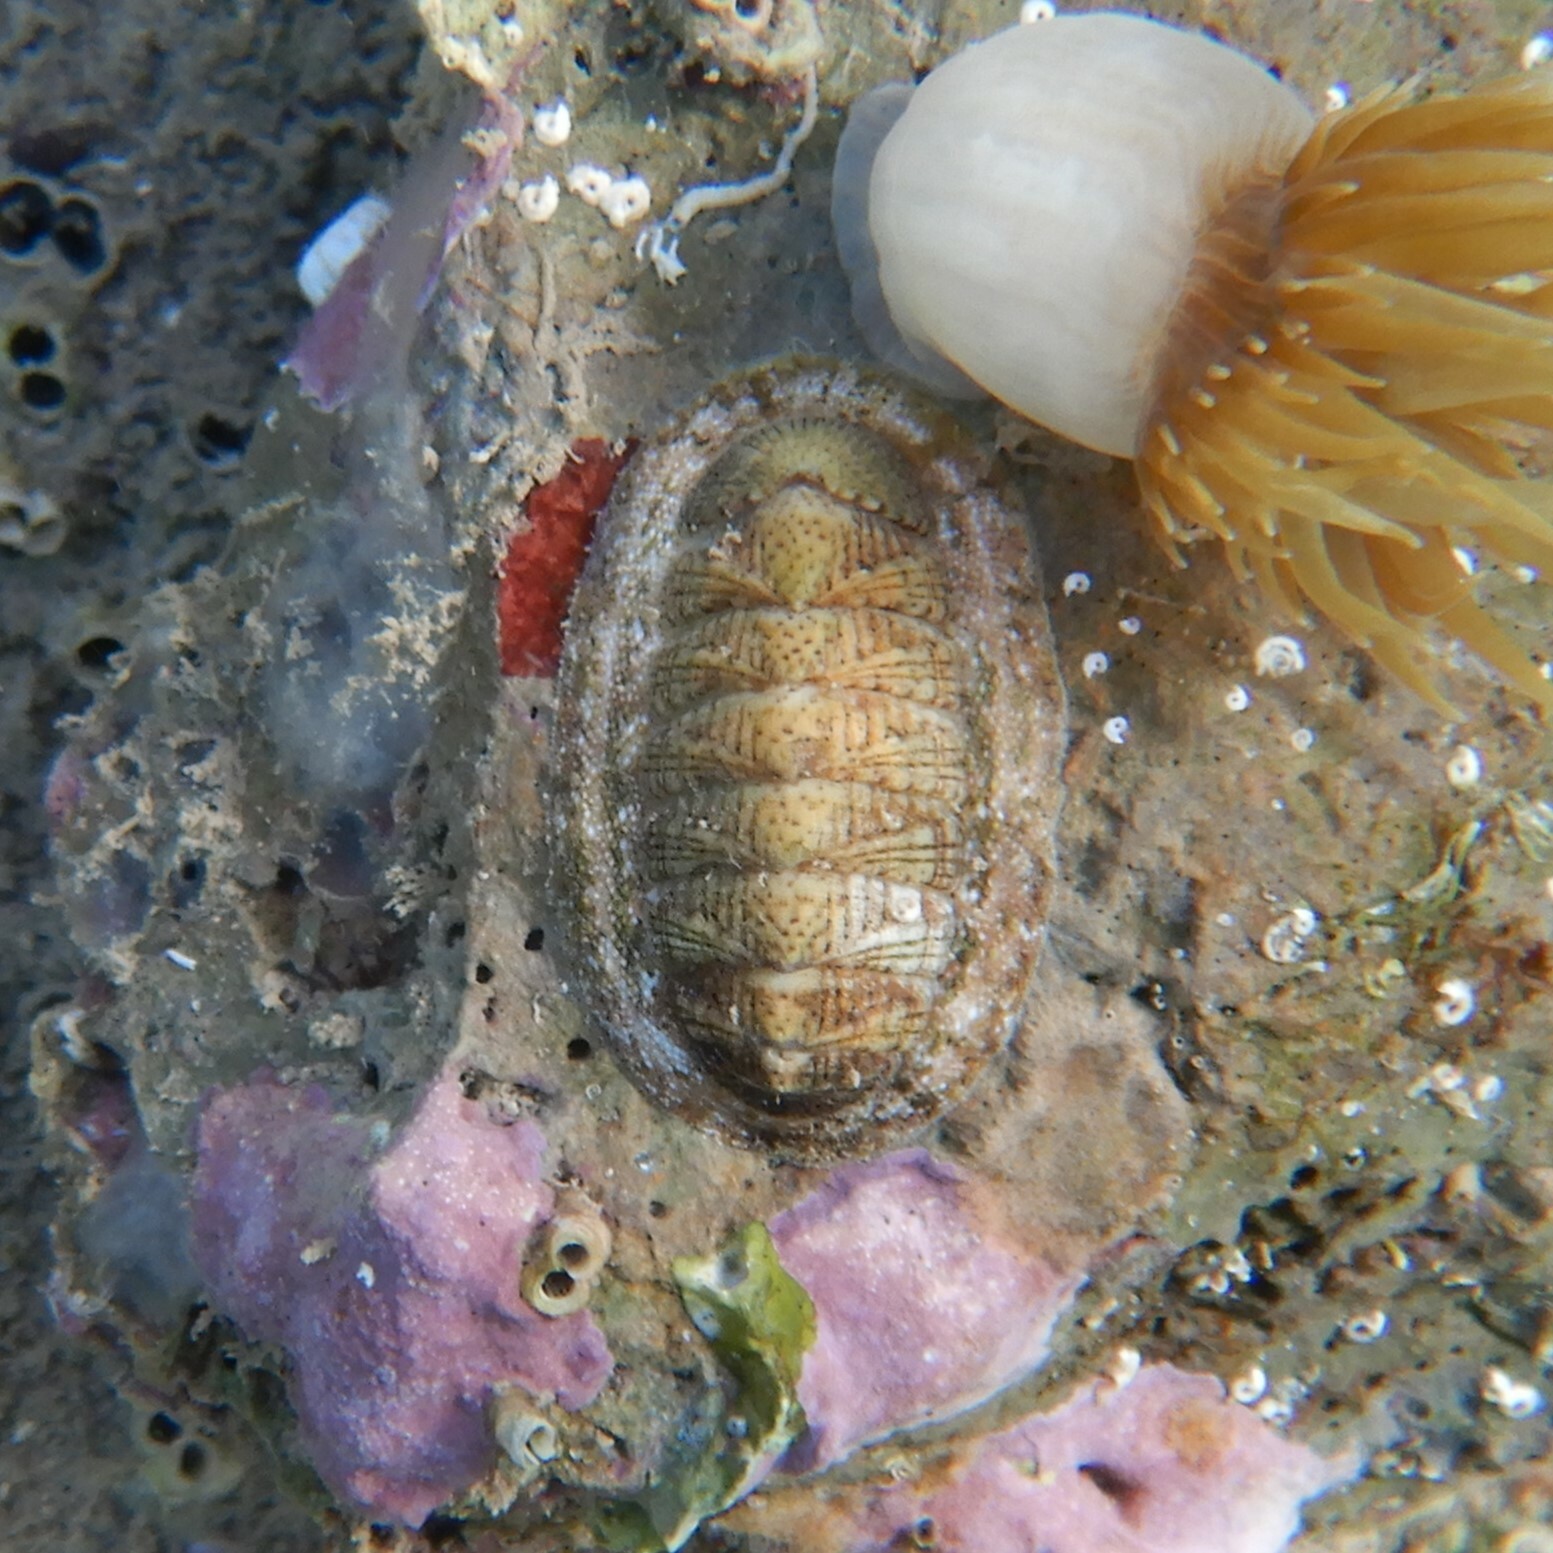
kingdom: Animalia
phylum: Mollusca
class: Polyplacophora
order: Chitonida
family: Chitonidae
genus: Rhyssoplax
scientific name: Rhyssoplax olivacea
